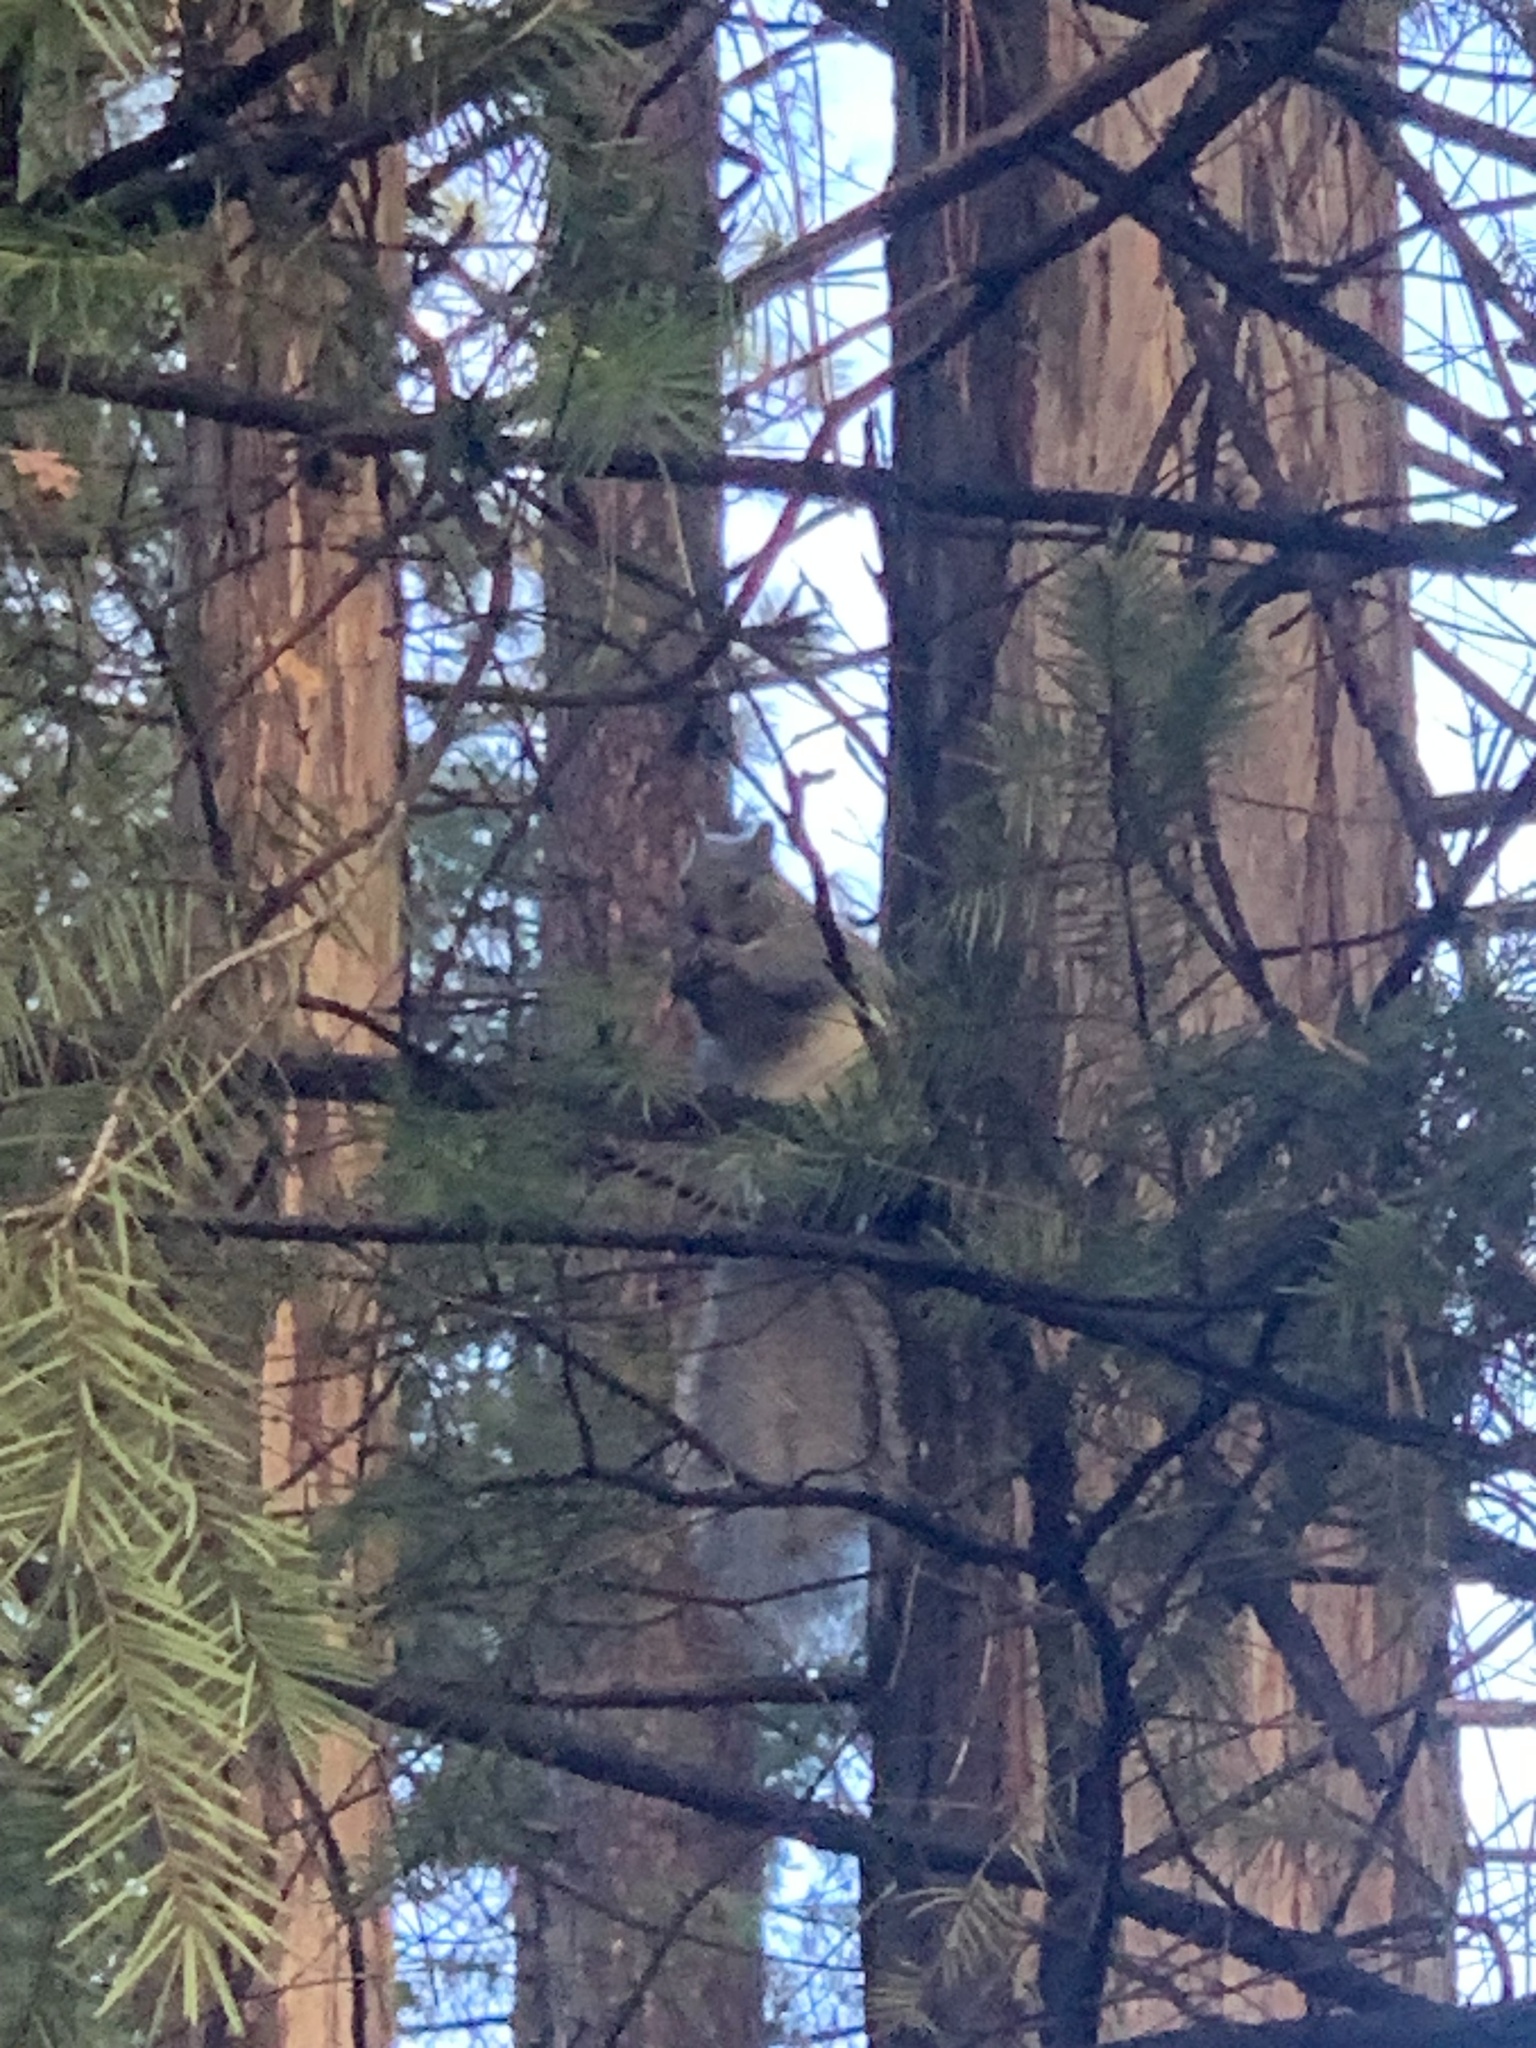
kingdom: Animalia
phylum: Chordata
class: Mammalia
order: Rodentia
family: Sciuridae
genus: Sciurus
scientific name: Sciurus griseus
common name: Western gray squirrel
